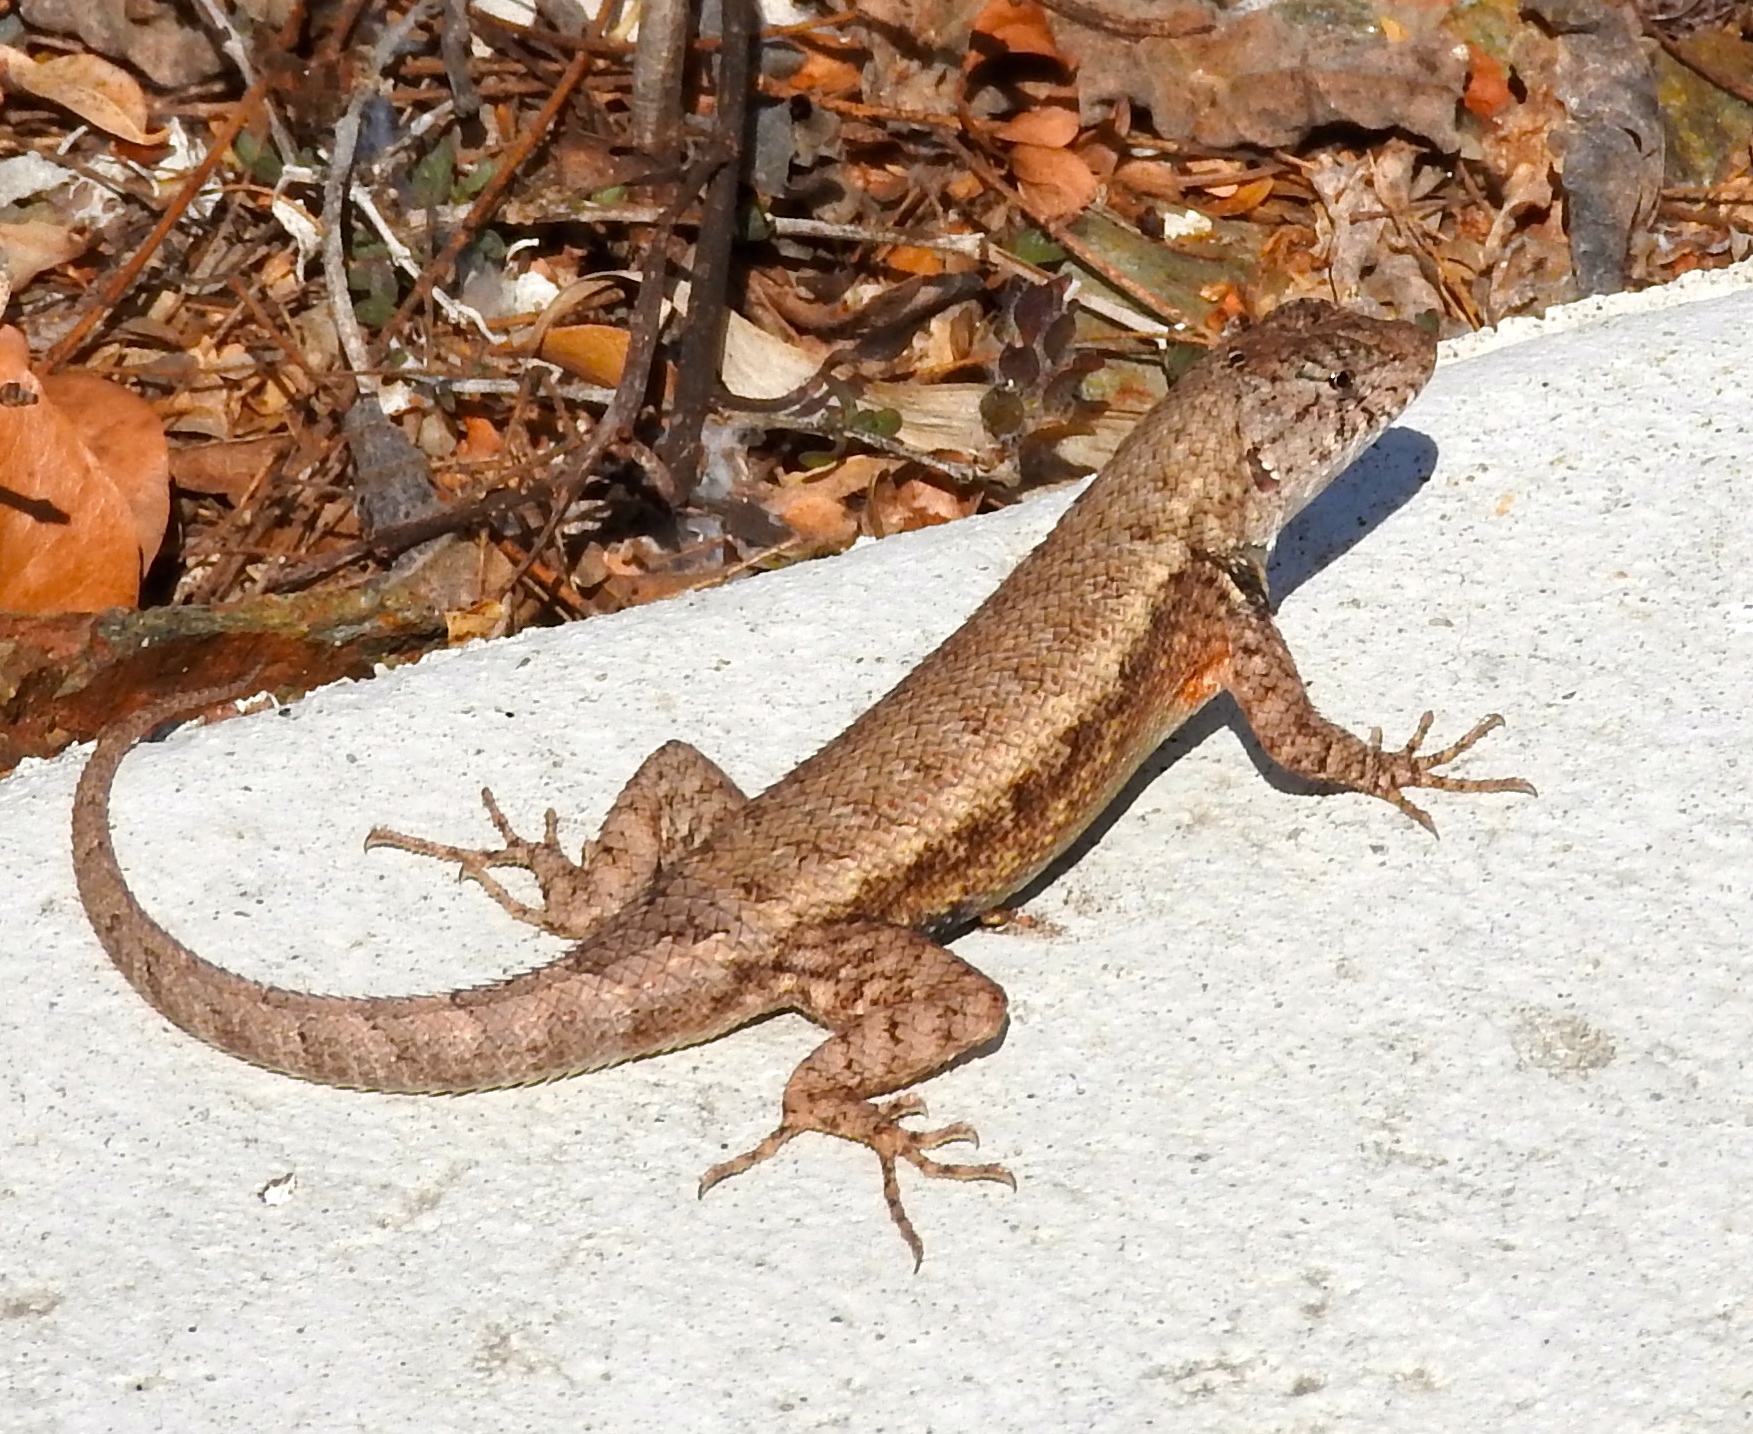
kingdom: Animalia
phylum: Chordata
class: Squamata
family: Phrynosomatidae
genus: Sceloporus
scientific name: Sceloporus nelsoni
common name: Nelson's spiny lizard
